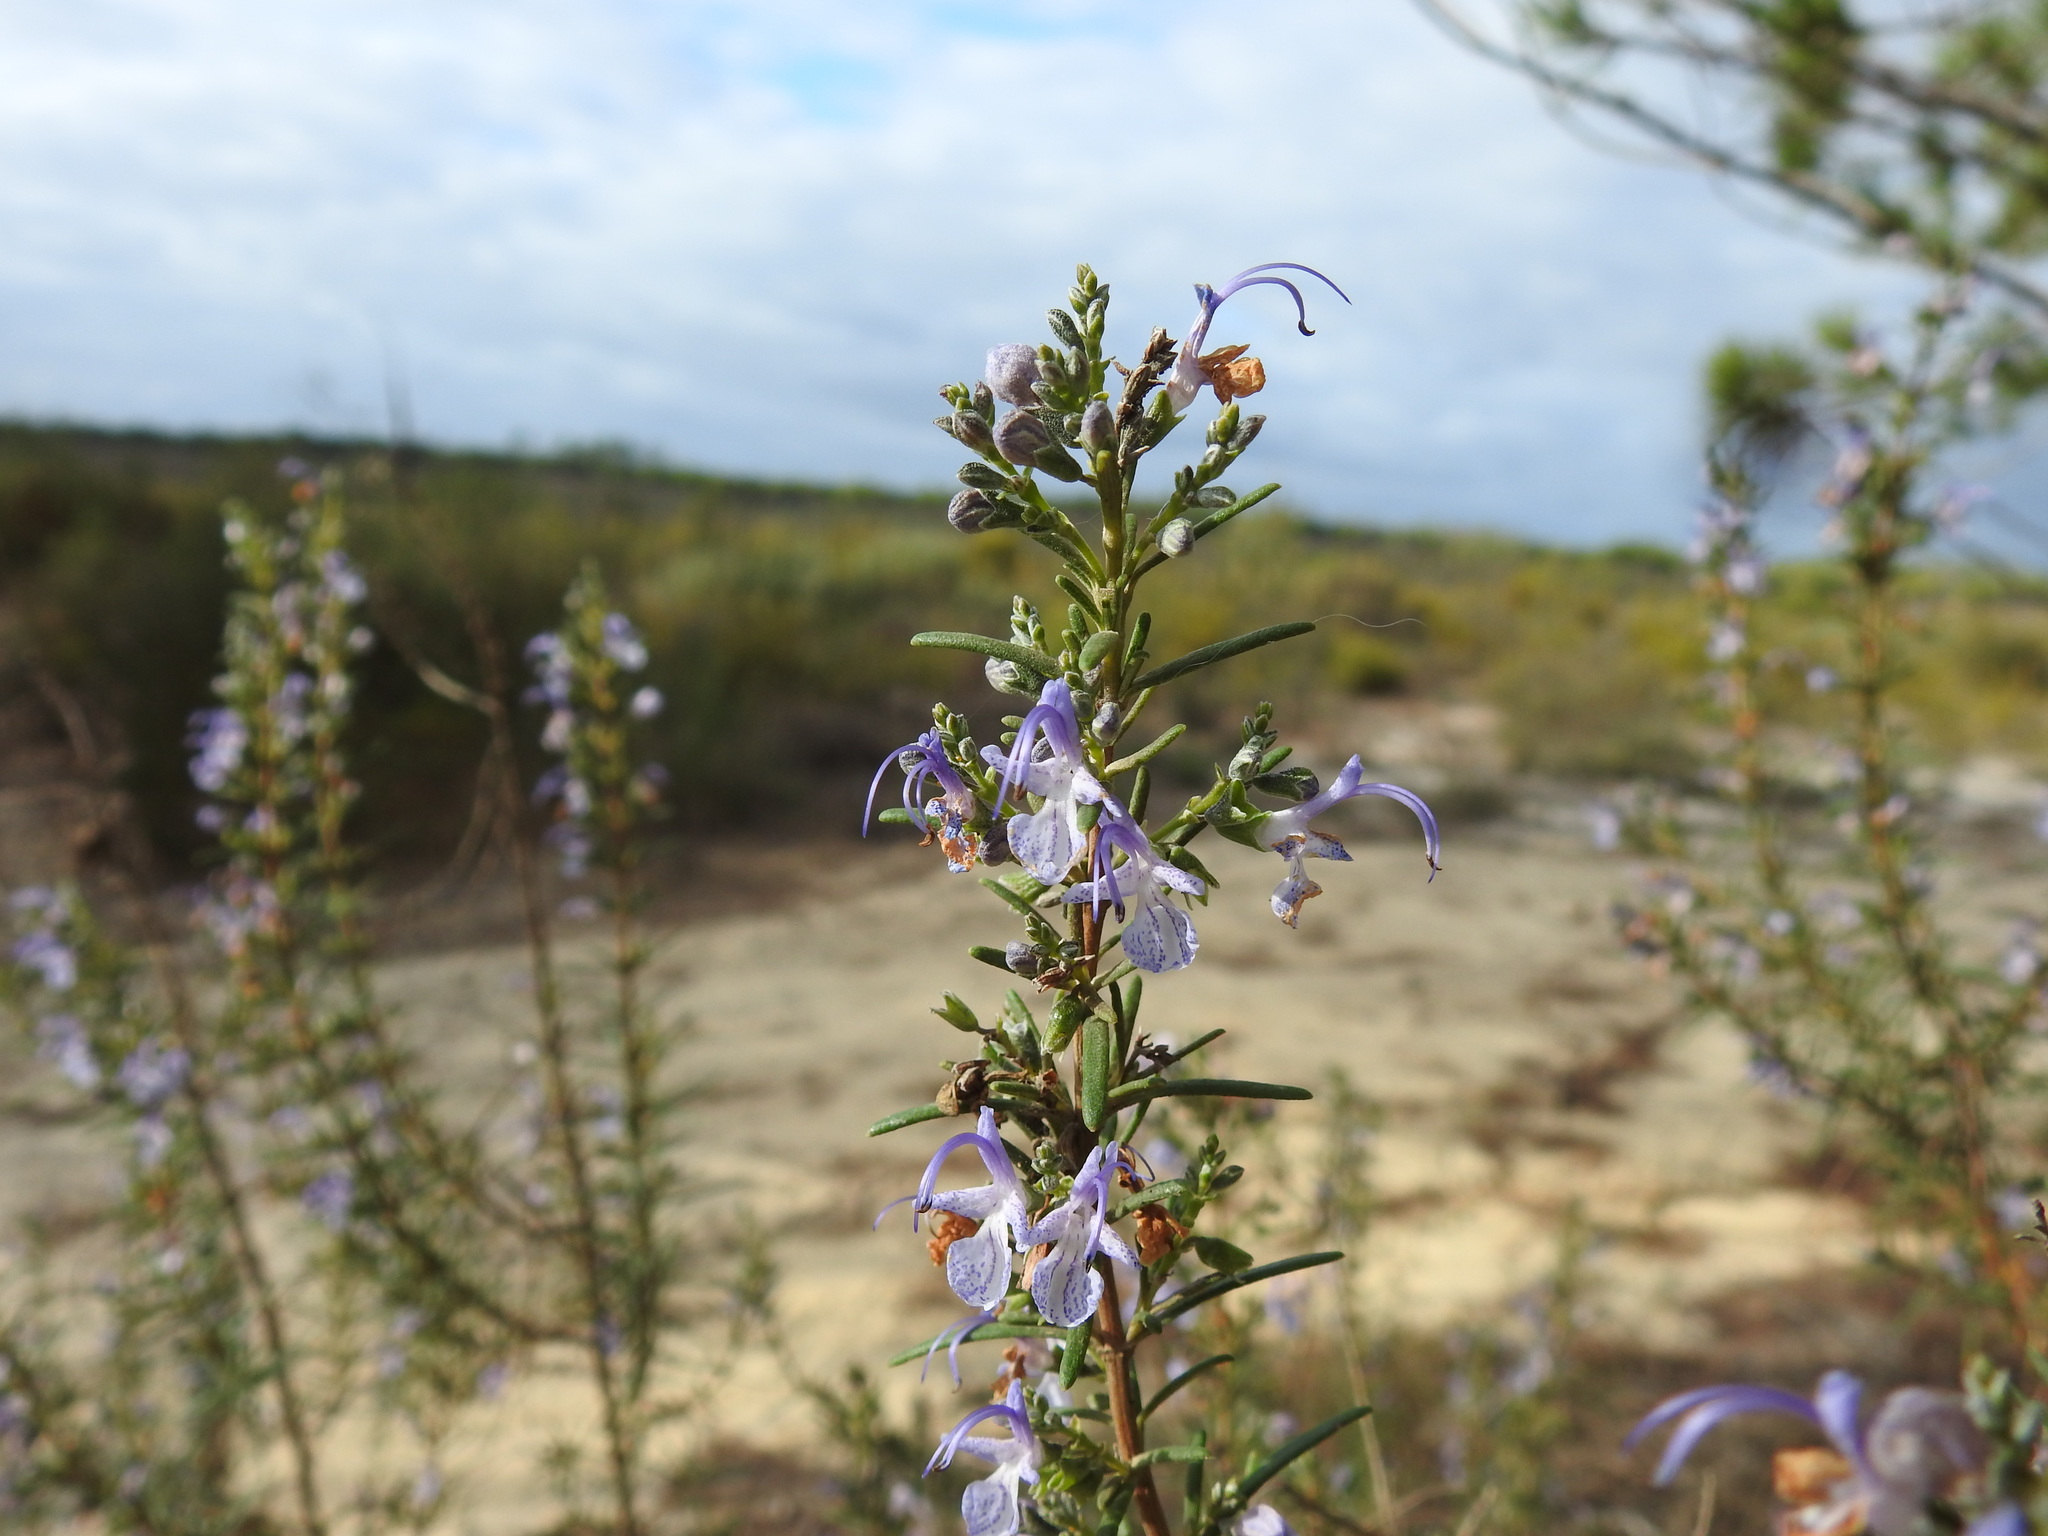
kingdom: Plantae
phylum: Tracheophyta
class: Magnoliopsida
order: Lamiales
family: Lamiaceae
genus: Salvia
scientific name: Salvia rosmarinus
